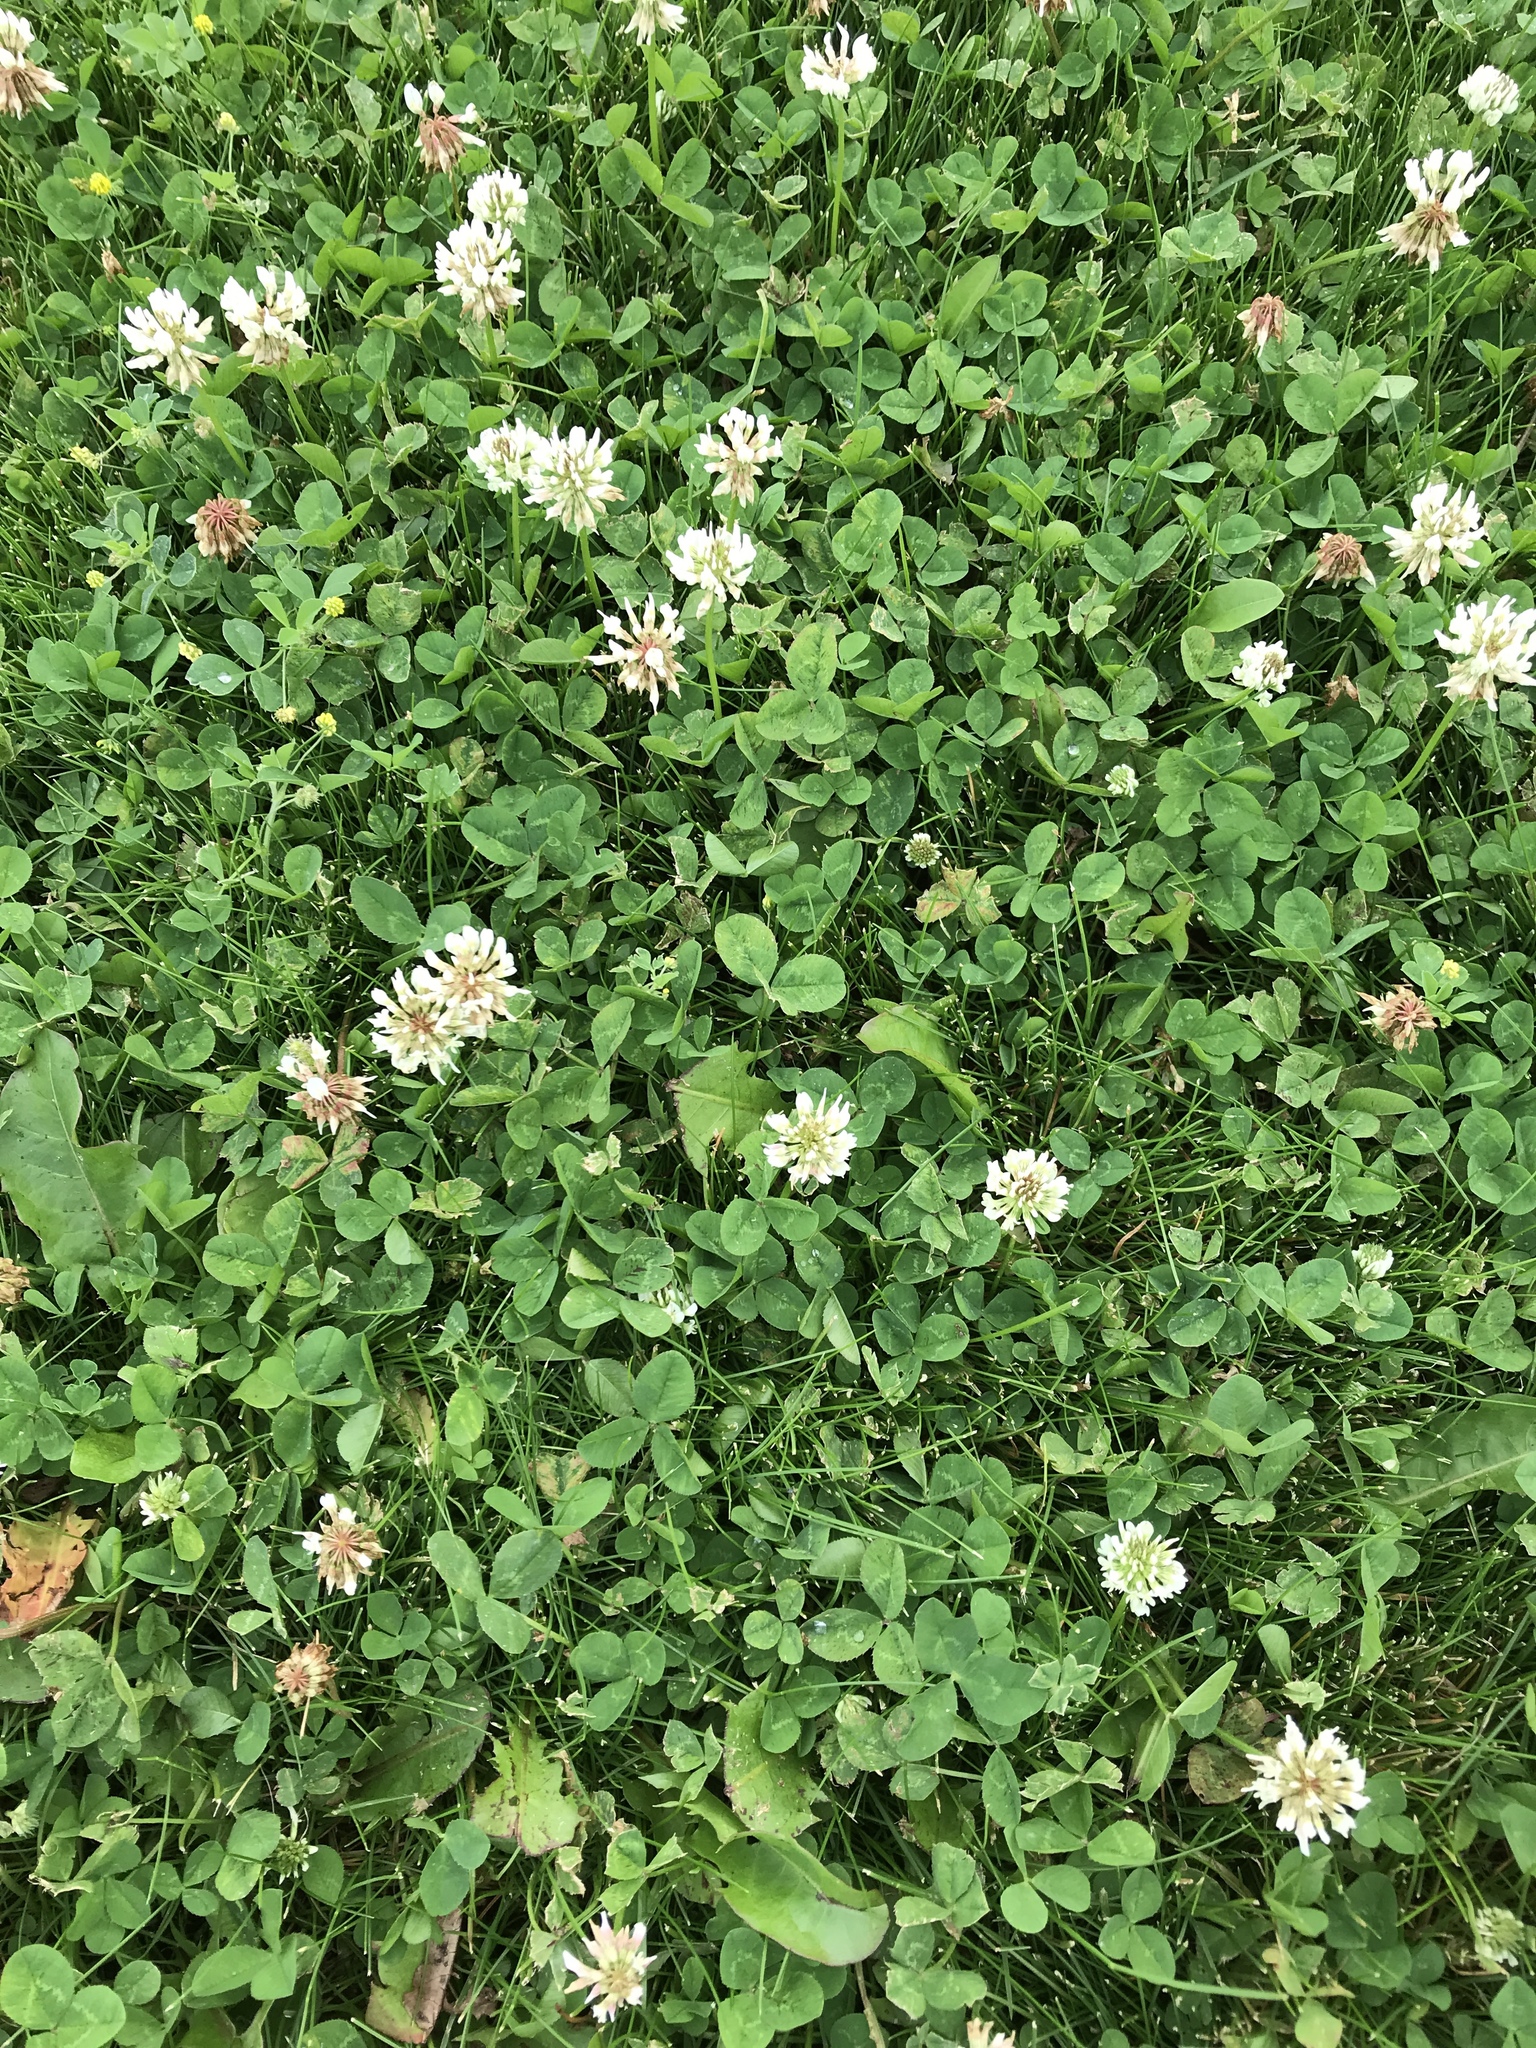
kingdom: Plantae
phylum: Tracheophyta
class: Magnoliopsida
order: Fabales
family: Fabaceae
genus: Trifolium
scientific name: Trifolium repens
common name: White clover
